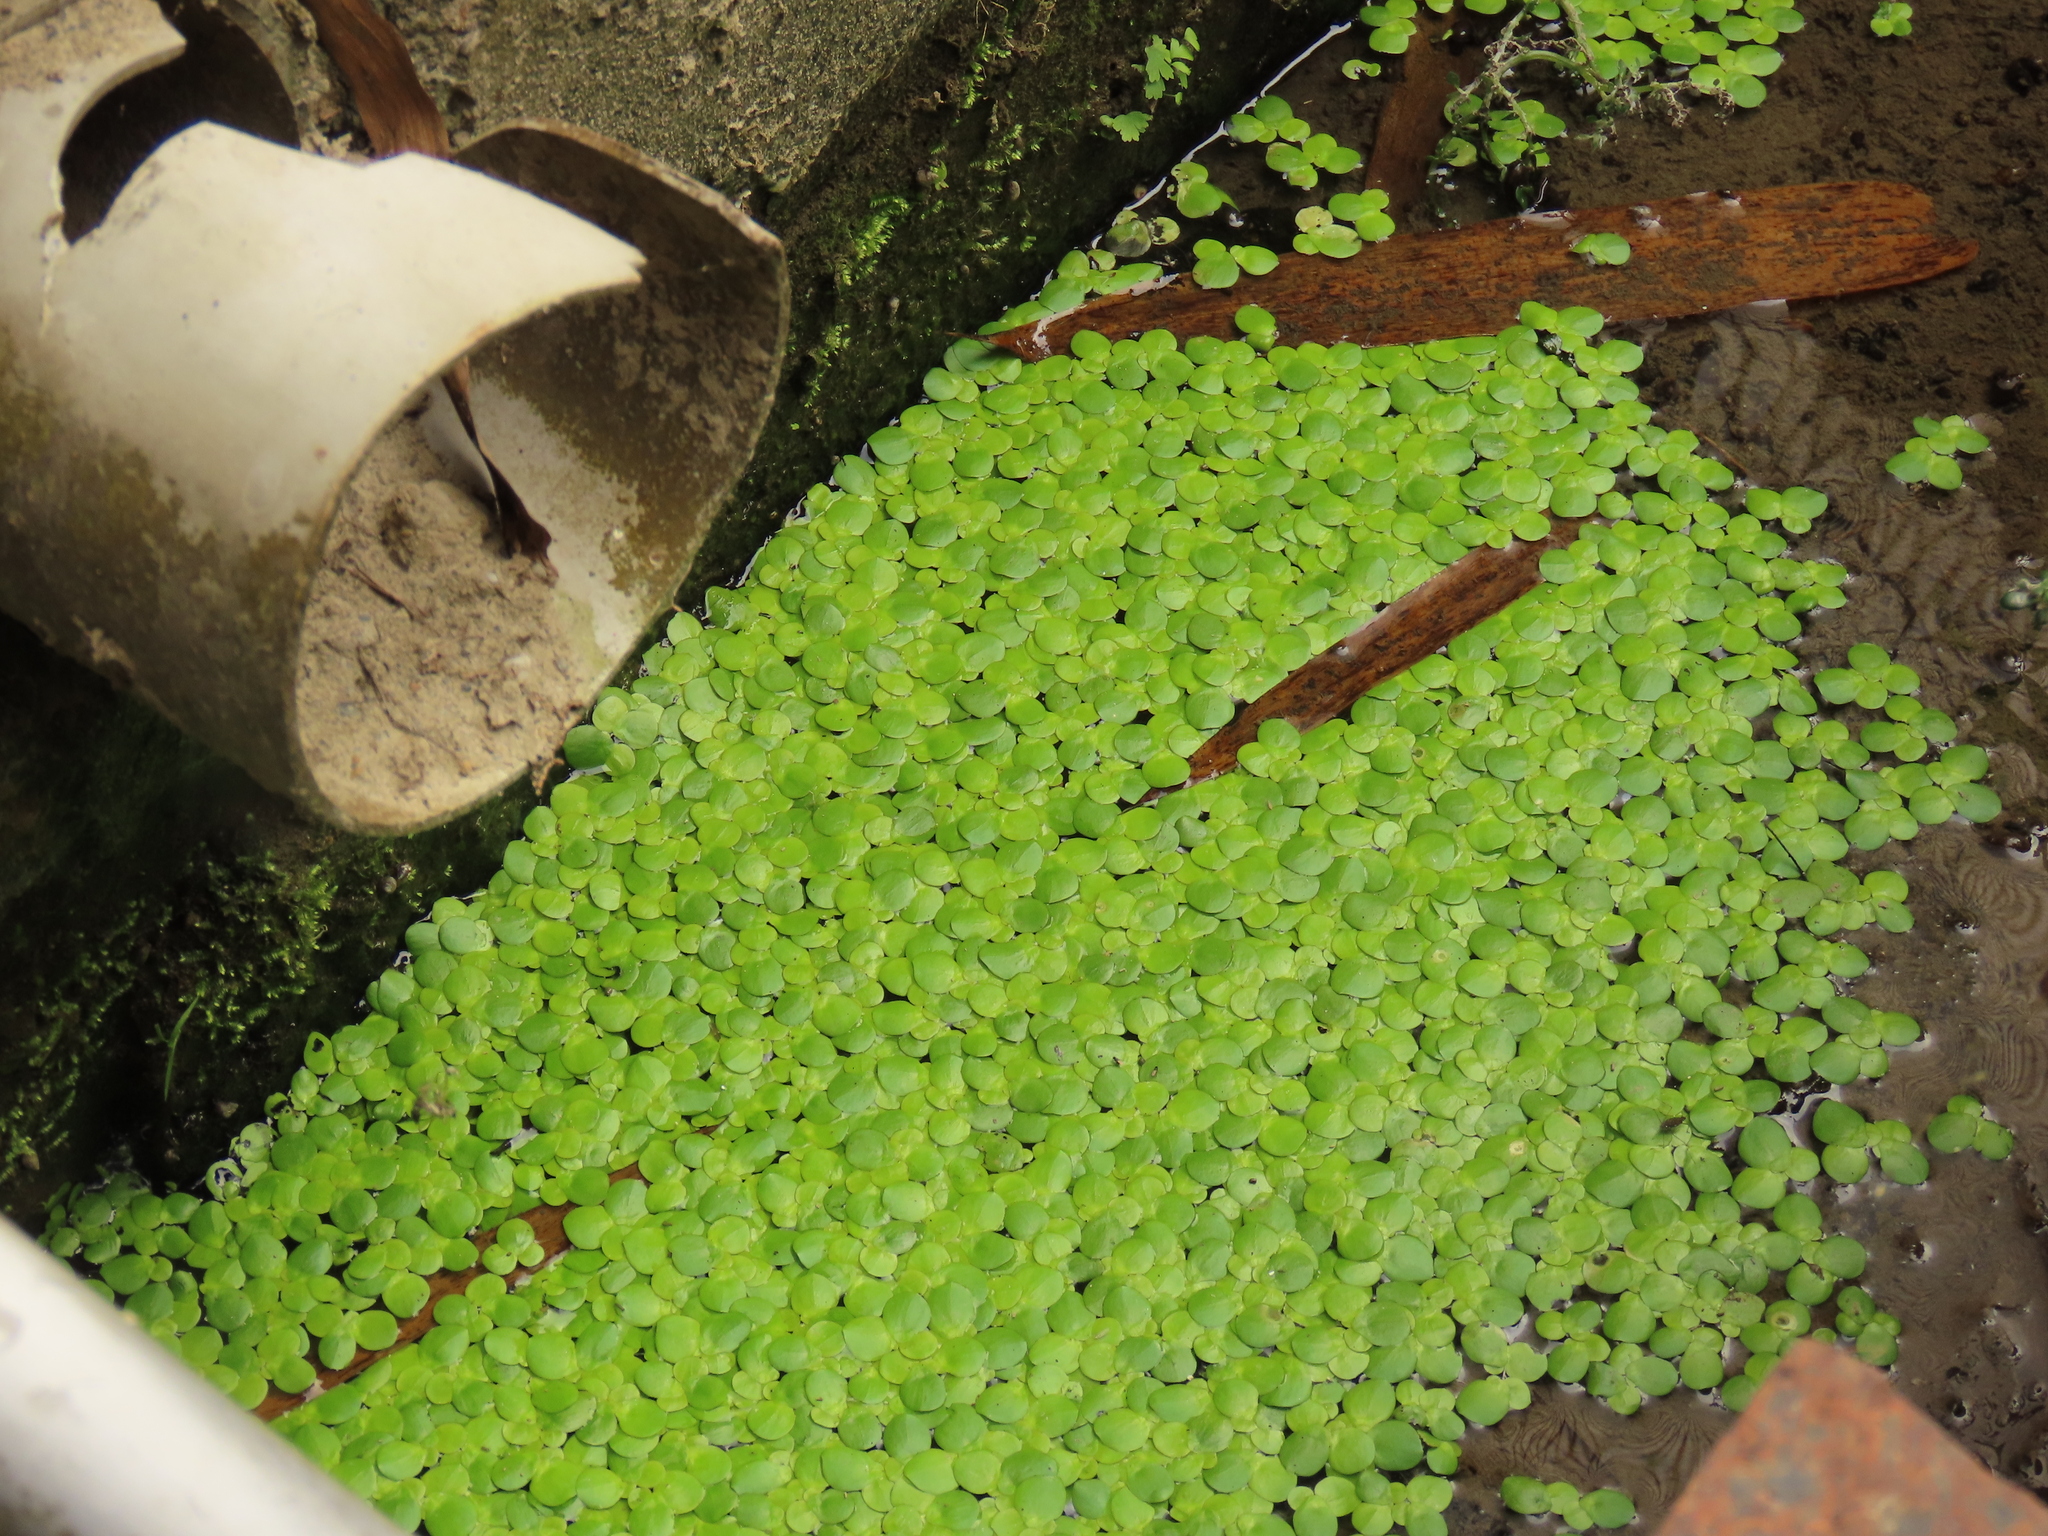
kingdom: Plantae
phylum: Tracheophyta
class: Liliopsida
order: Alismatales
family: Araceae
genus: Spirodela
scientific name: Spirodela polyrhiza
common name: Great duckweed
